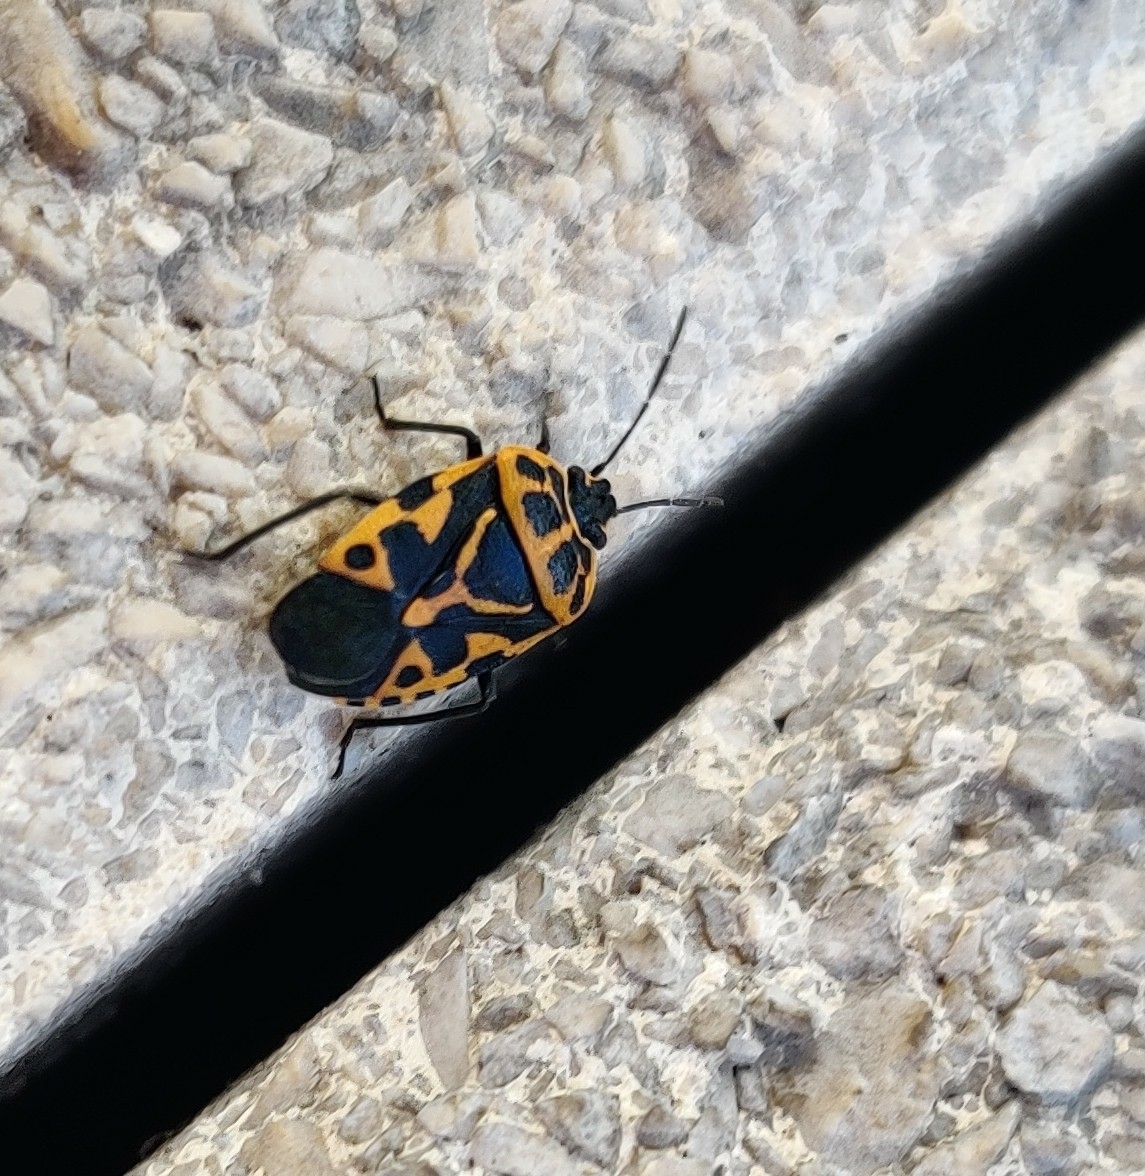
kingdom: Animalia
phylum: Arthropoda
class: Insecta
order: Hemiptera
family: Pentatomidae
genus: Eurydema
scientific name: Eurydema ventralis
